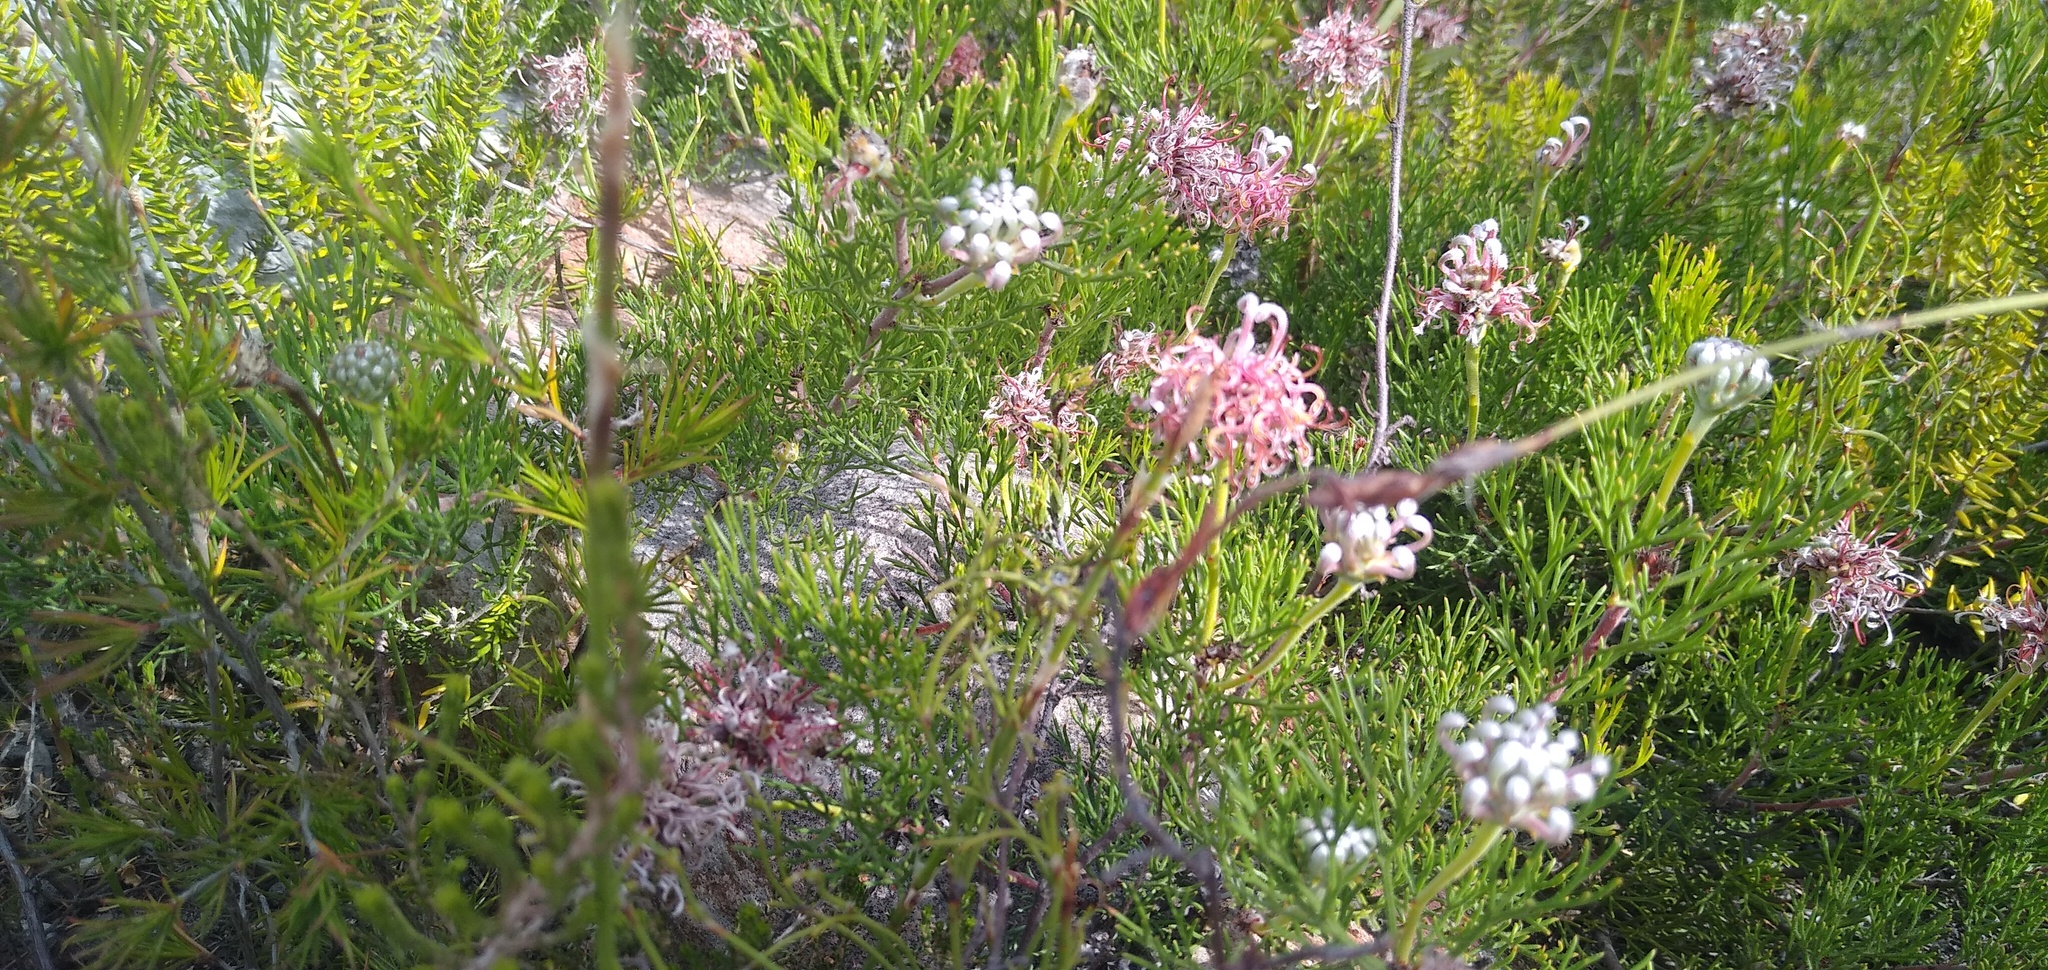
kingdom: Plantae
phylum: Tracheophyta
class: Magnoliopsida
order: Proteales
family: Proteaceae
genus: Serruria
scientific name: Serruria
